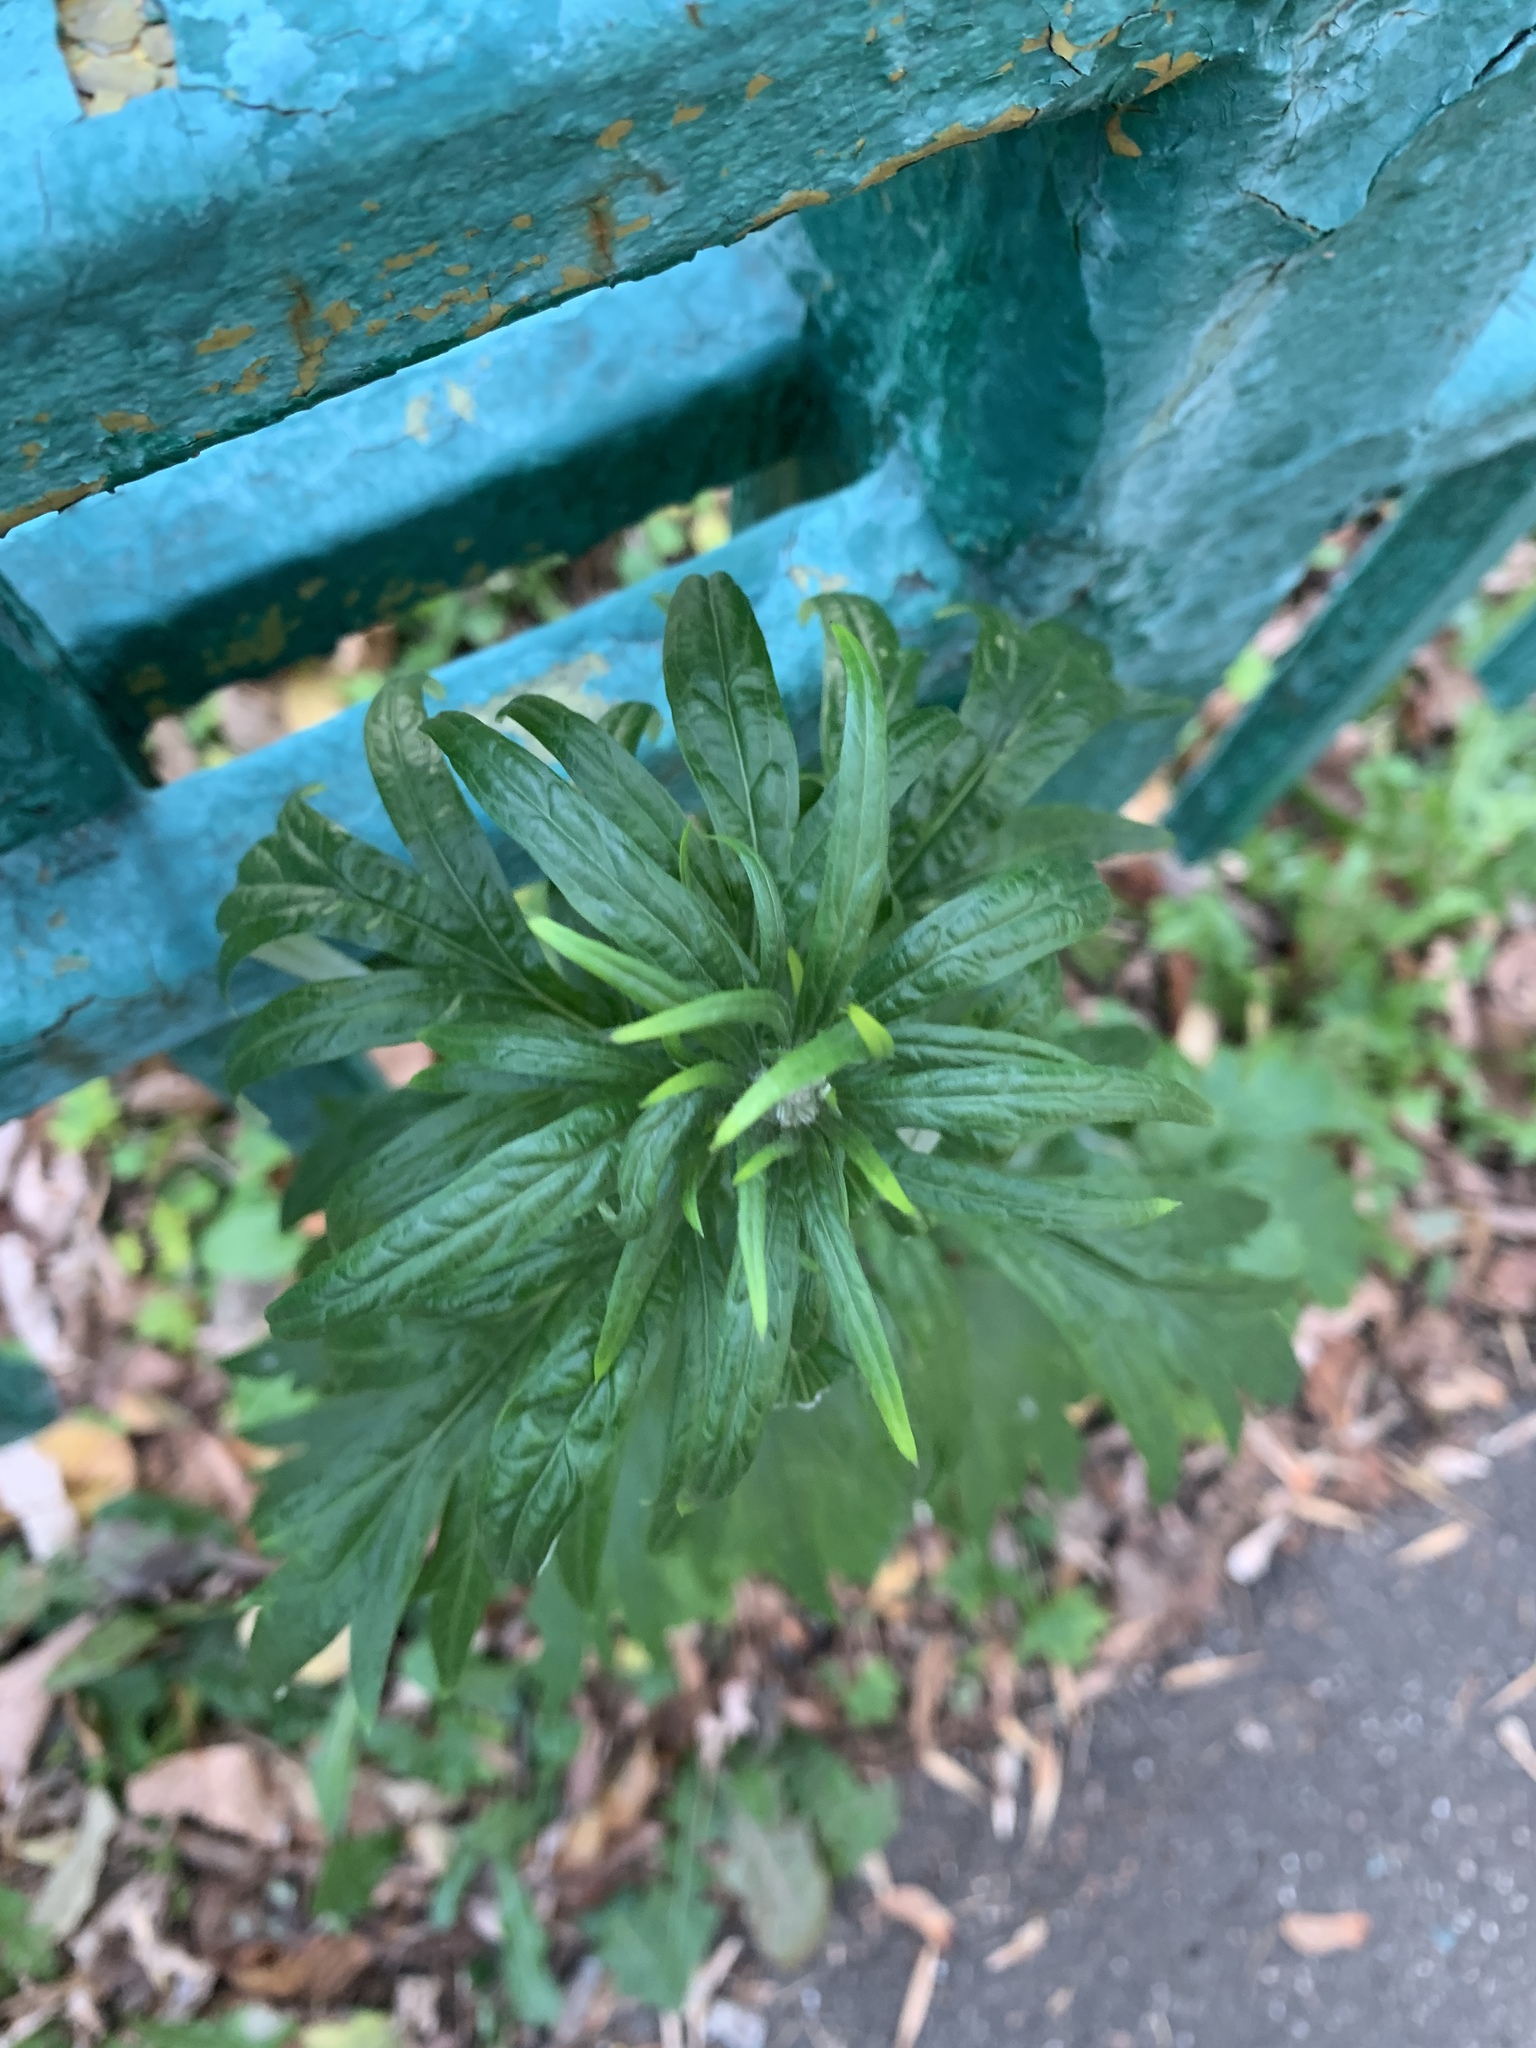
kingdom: Plantae
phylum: Tracheophyta
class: Magnoliopsida
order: Asterales
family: Asteraceae
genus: Artemisia
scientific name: Artemisia vulgaris
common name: Mugwort
